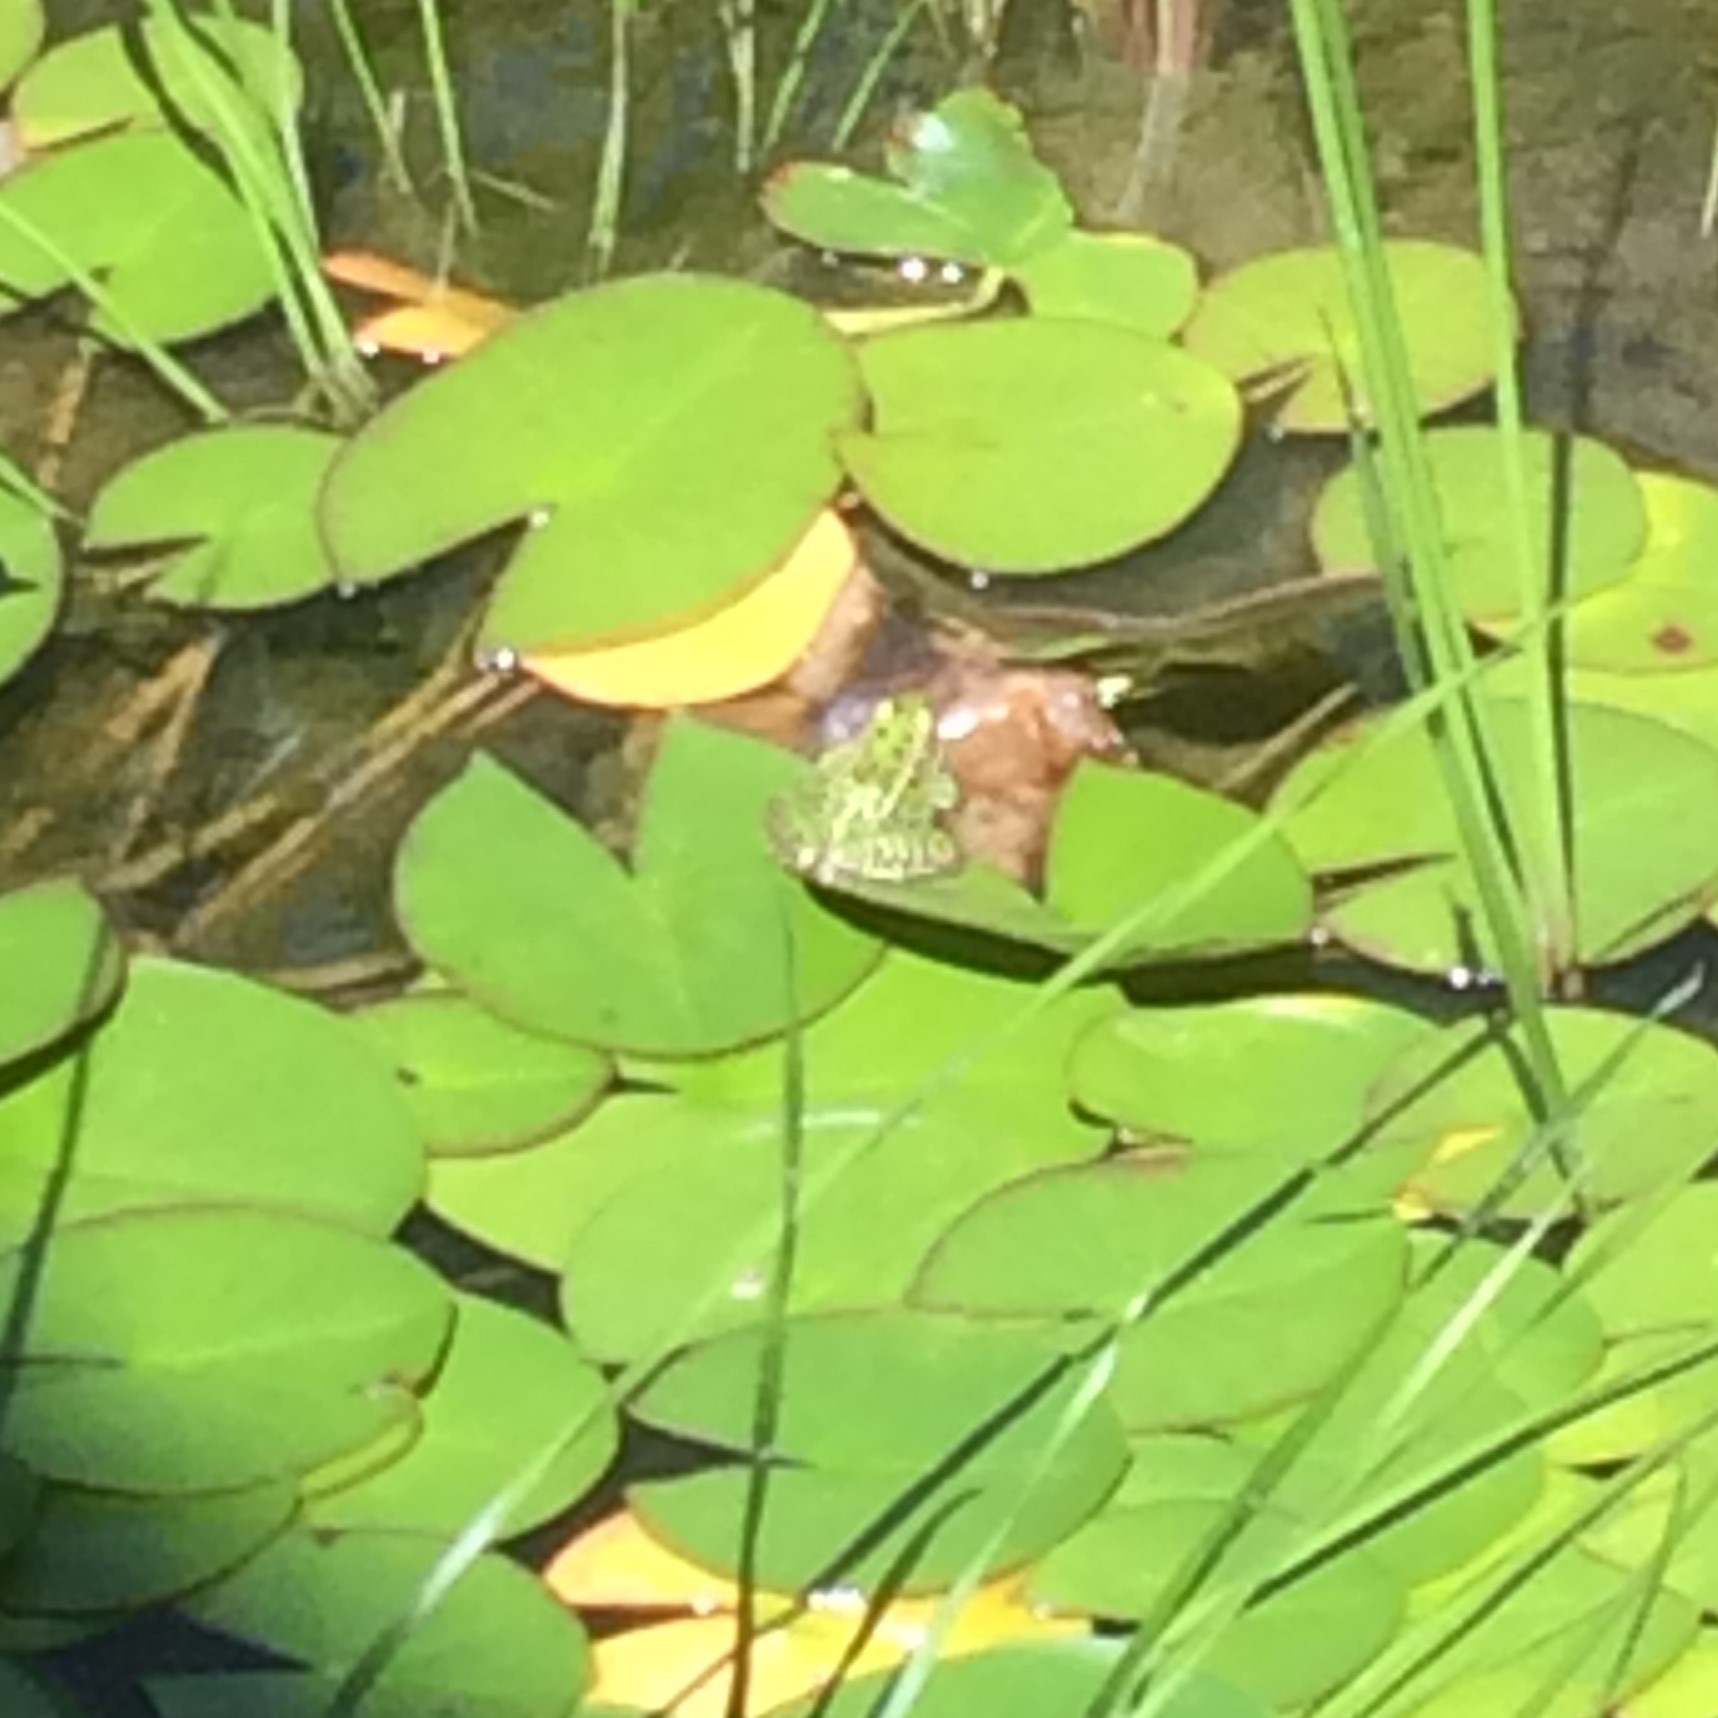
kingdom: Animalia
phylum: Chordata
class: Amphibia
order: Anura
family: Ranidae
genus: Lithobates
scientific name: Lithobates pipiens
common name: Northern leopard frog
